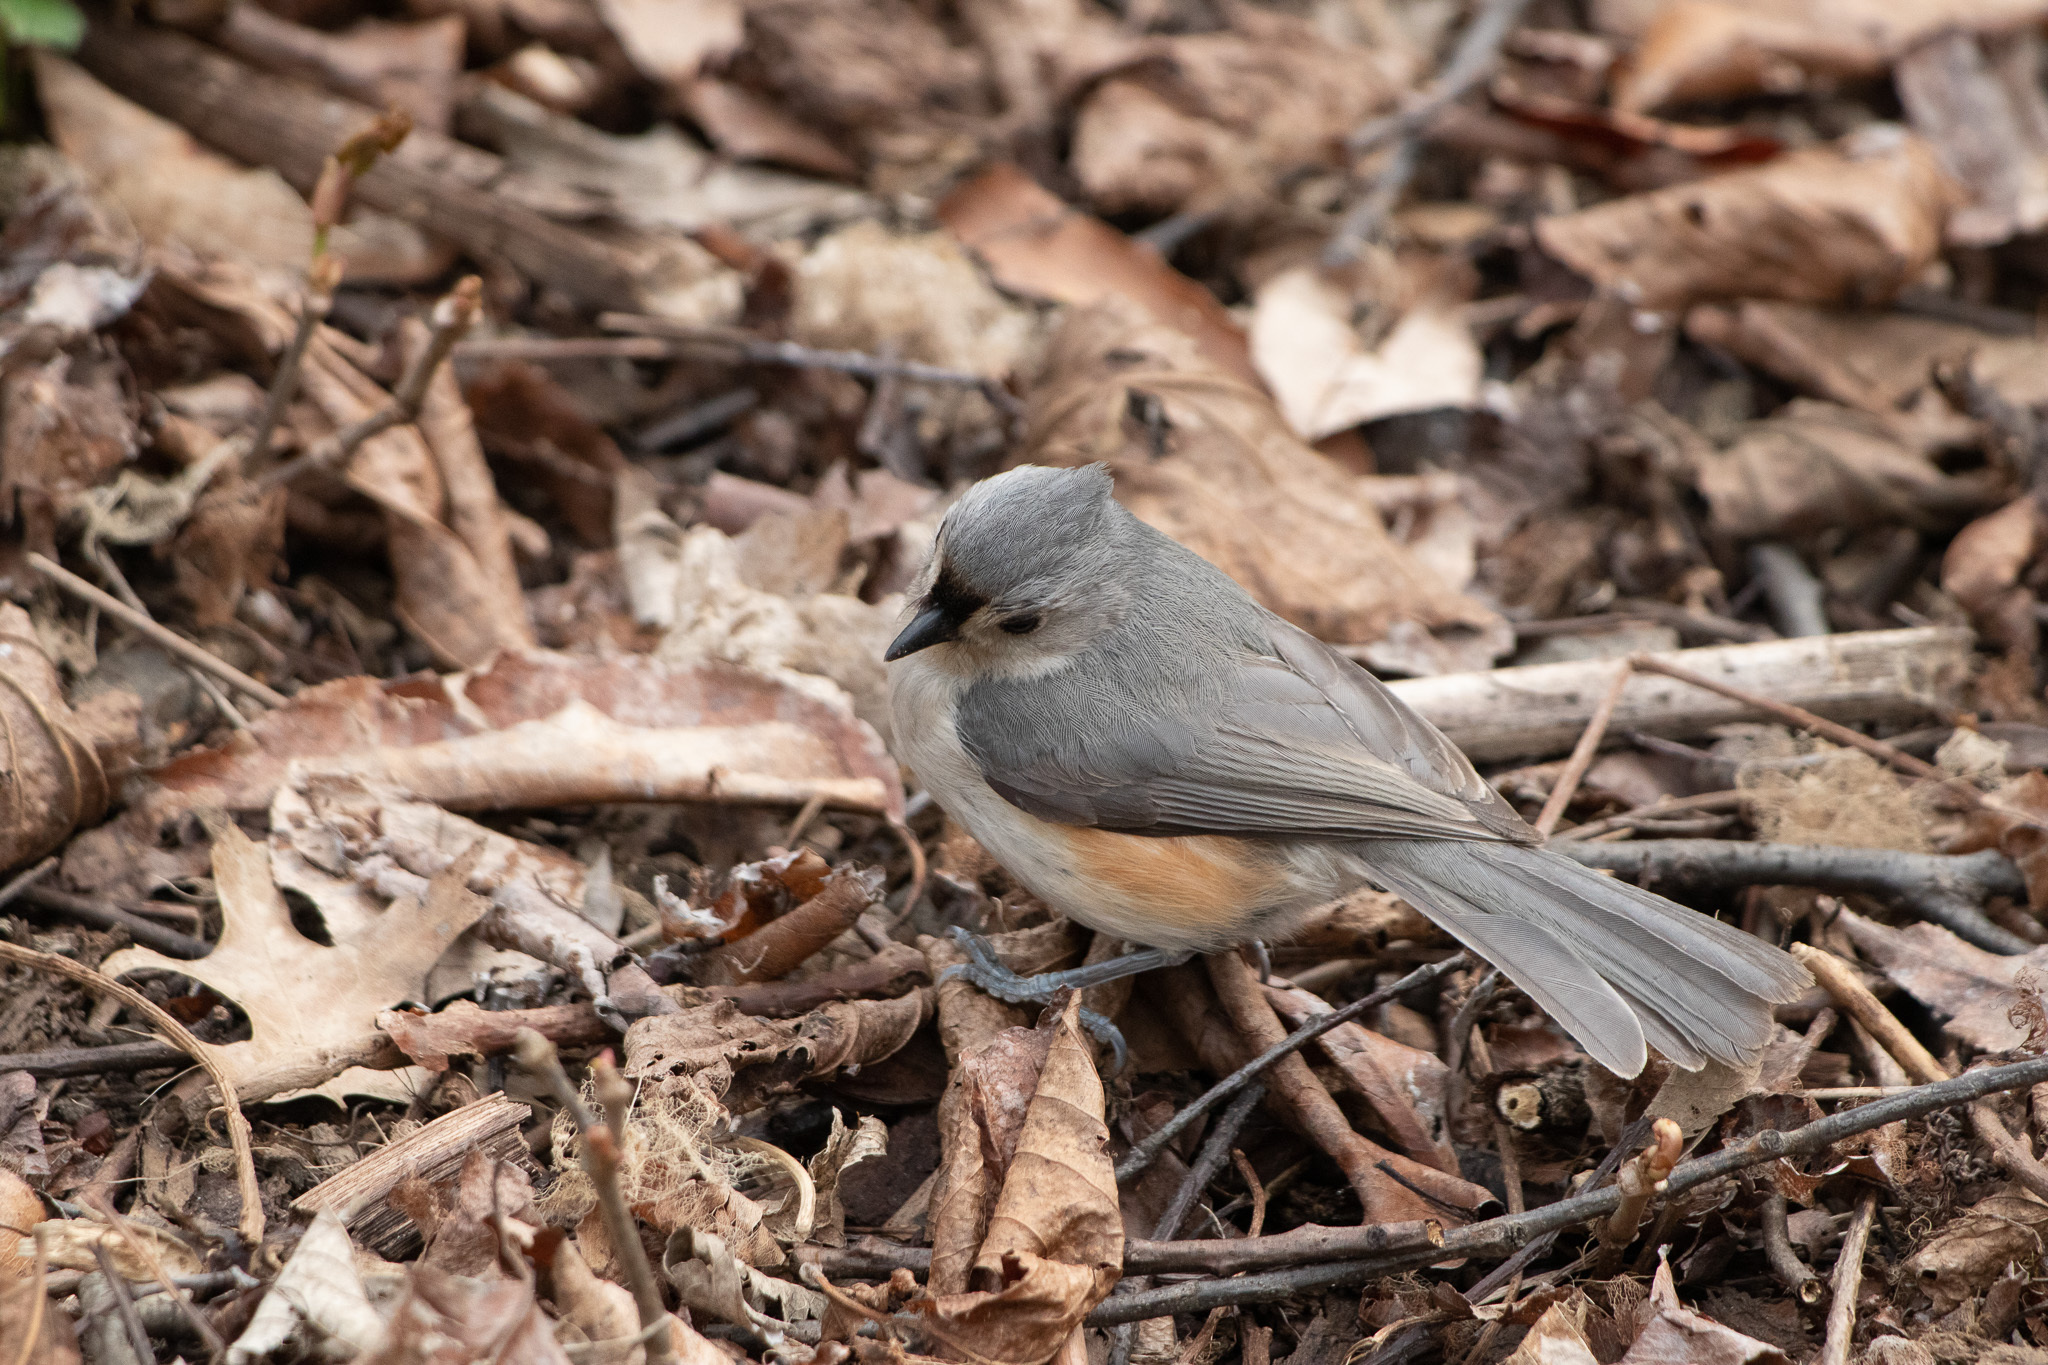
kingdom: Animalia
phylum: Chordata
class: Aves
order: Passeriformes
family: Paridae
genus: Baeolophus
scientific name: Baeolophus bicolor
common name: Tufted titmouse
